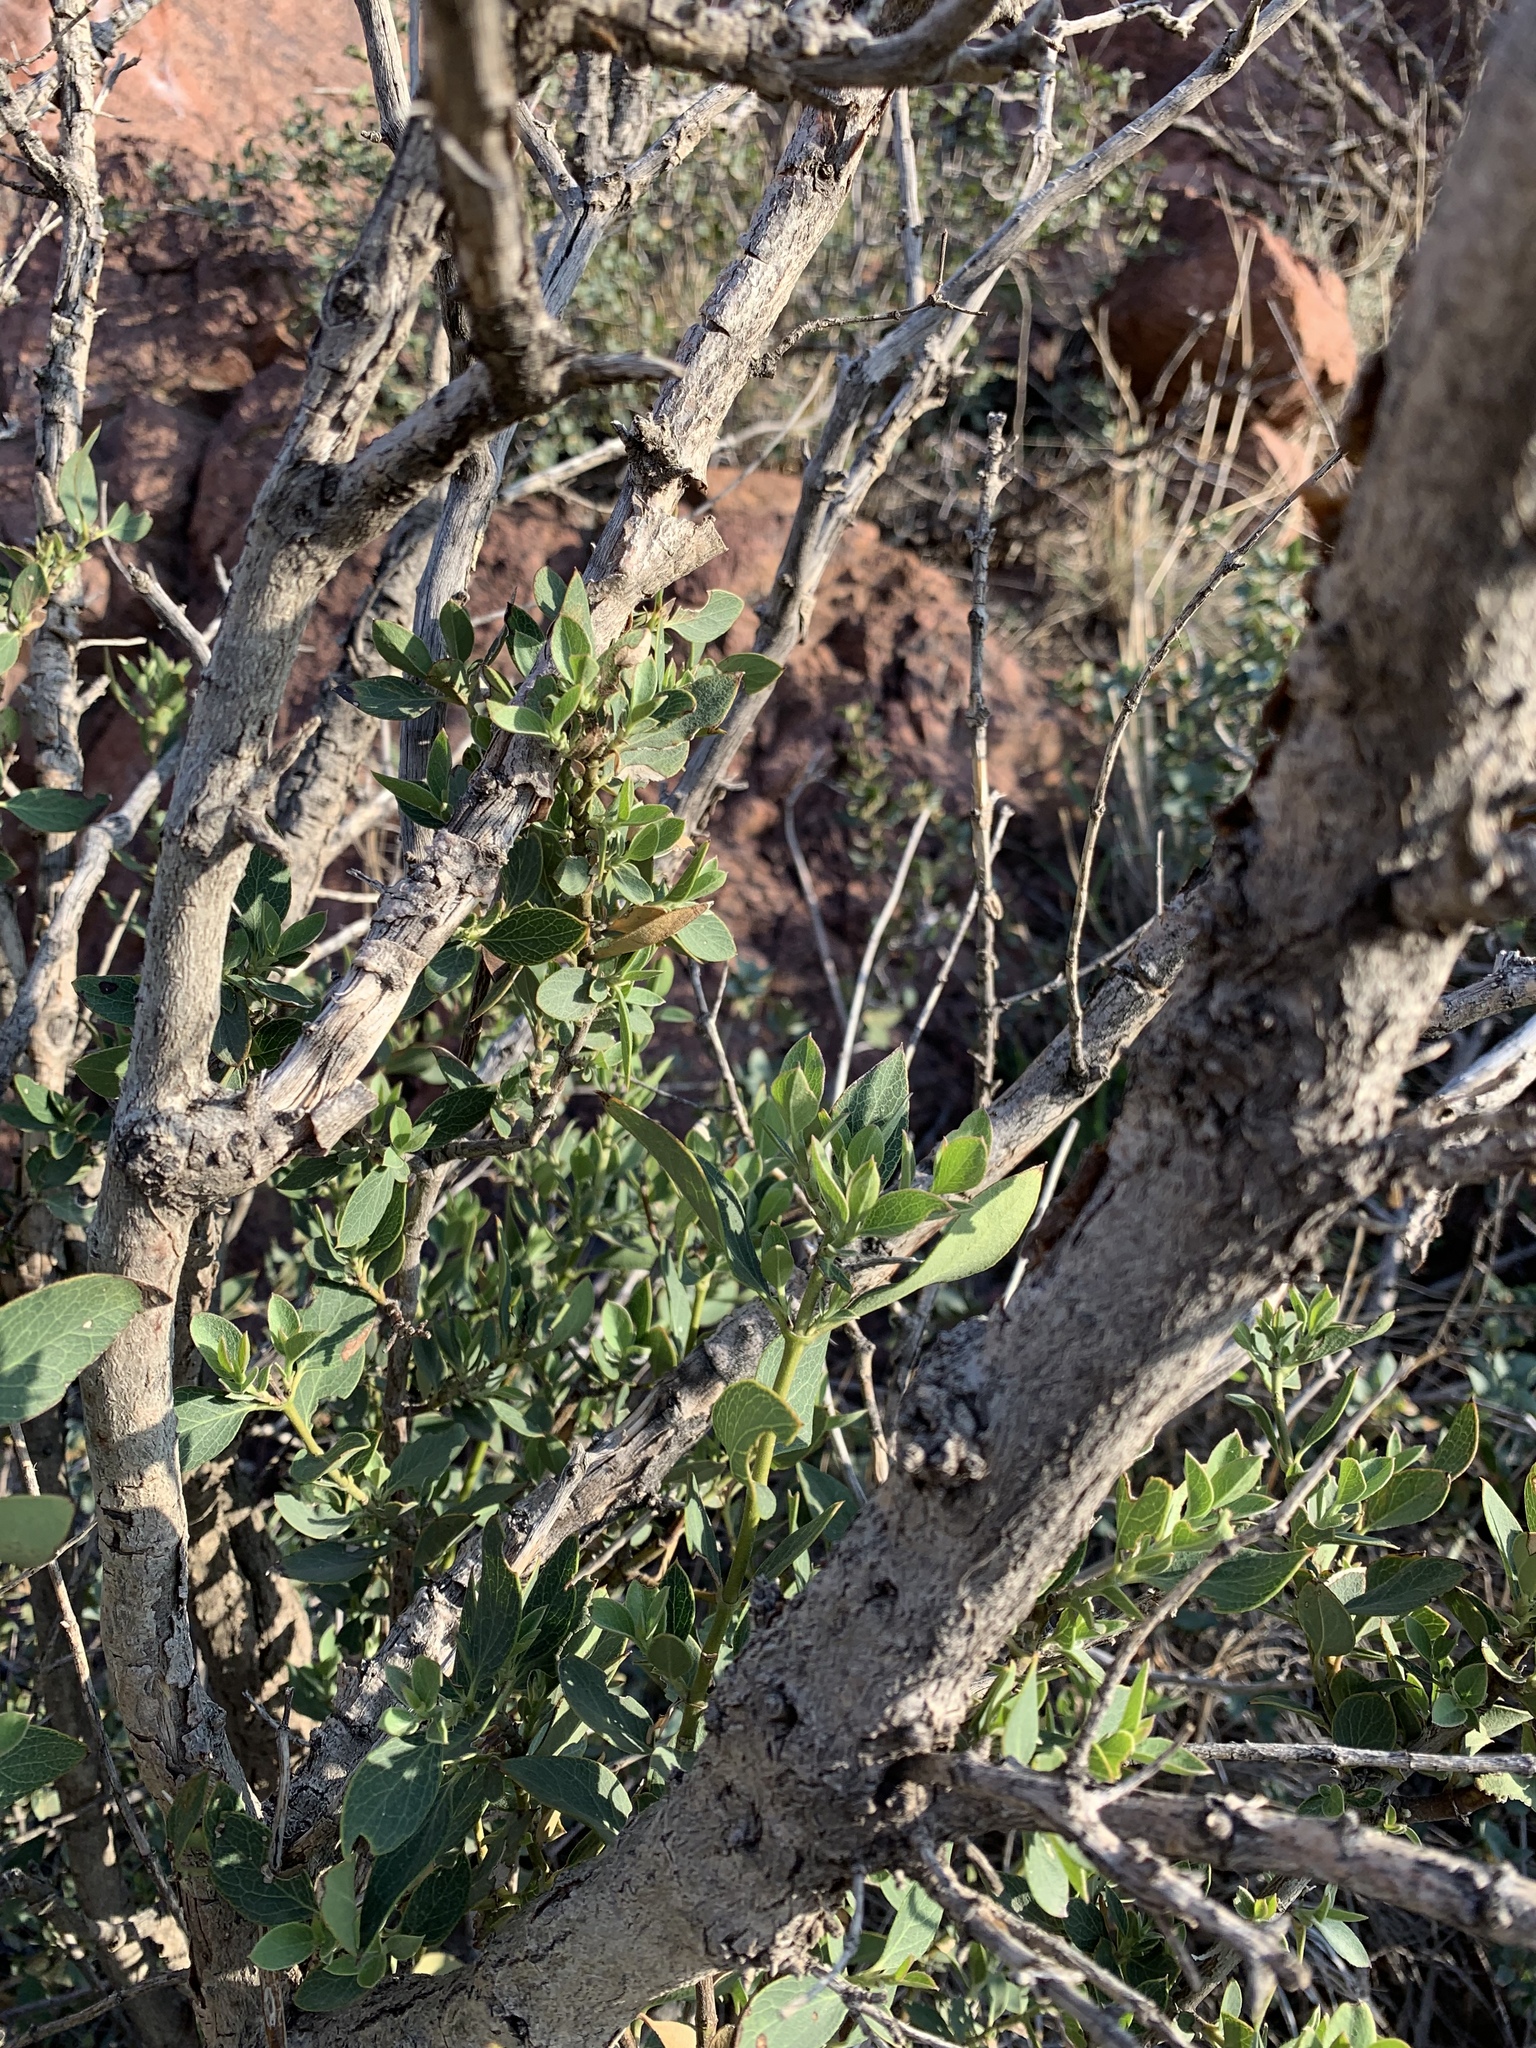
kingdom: Plantae
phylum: Tracheophyta
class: Magnoliopsida
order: Garryales
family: Garryaceae
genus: Garrya
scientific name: Garrya wrightii
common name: Wright's silktassel
